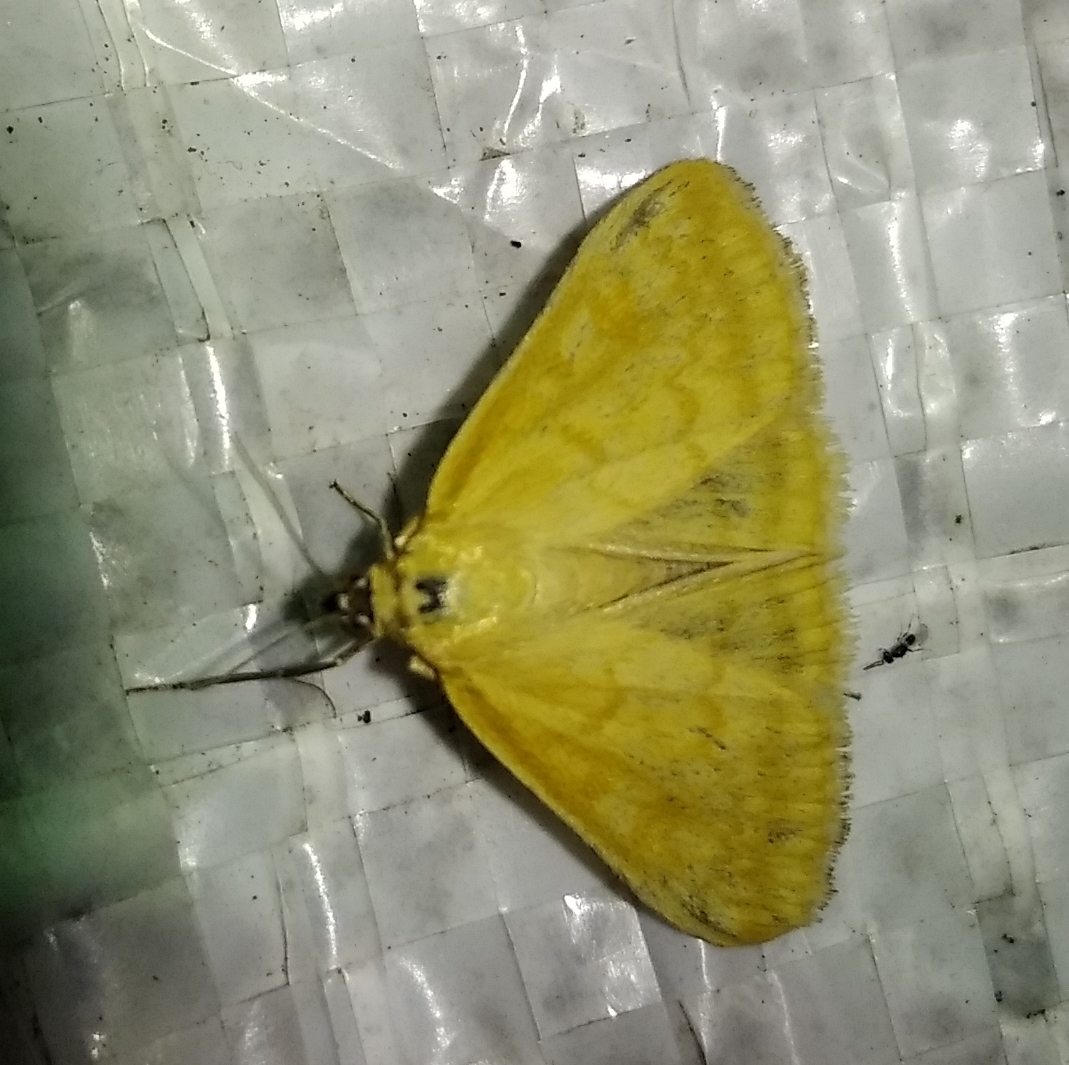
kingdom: Animalia
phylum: Arthropoda
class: Insecta
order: Lepidoptera
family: Crambidae
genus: Sitochroa
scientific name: Sitochroa verticalis
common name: Lesser pearl
